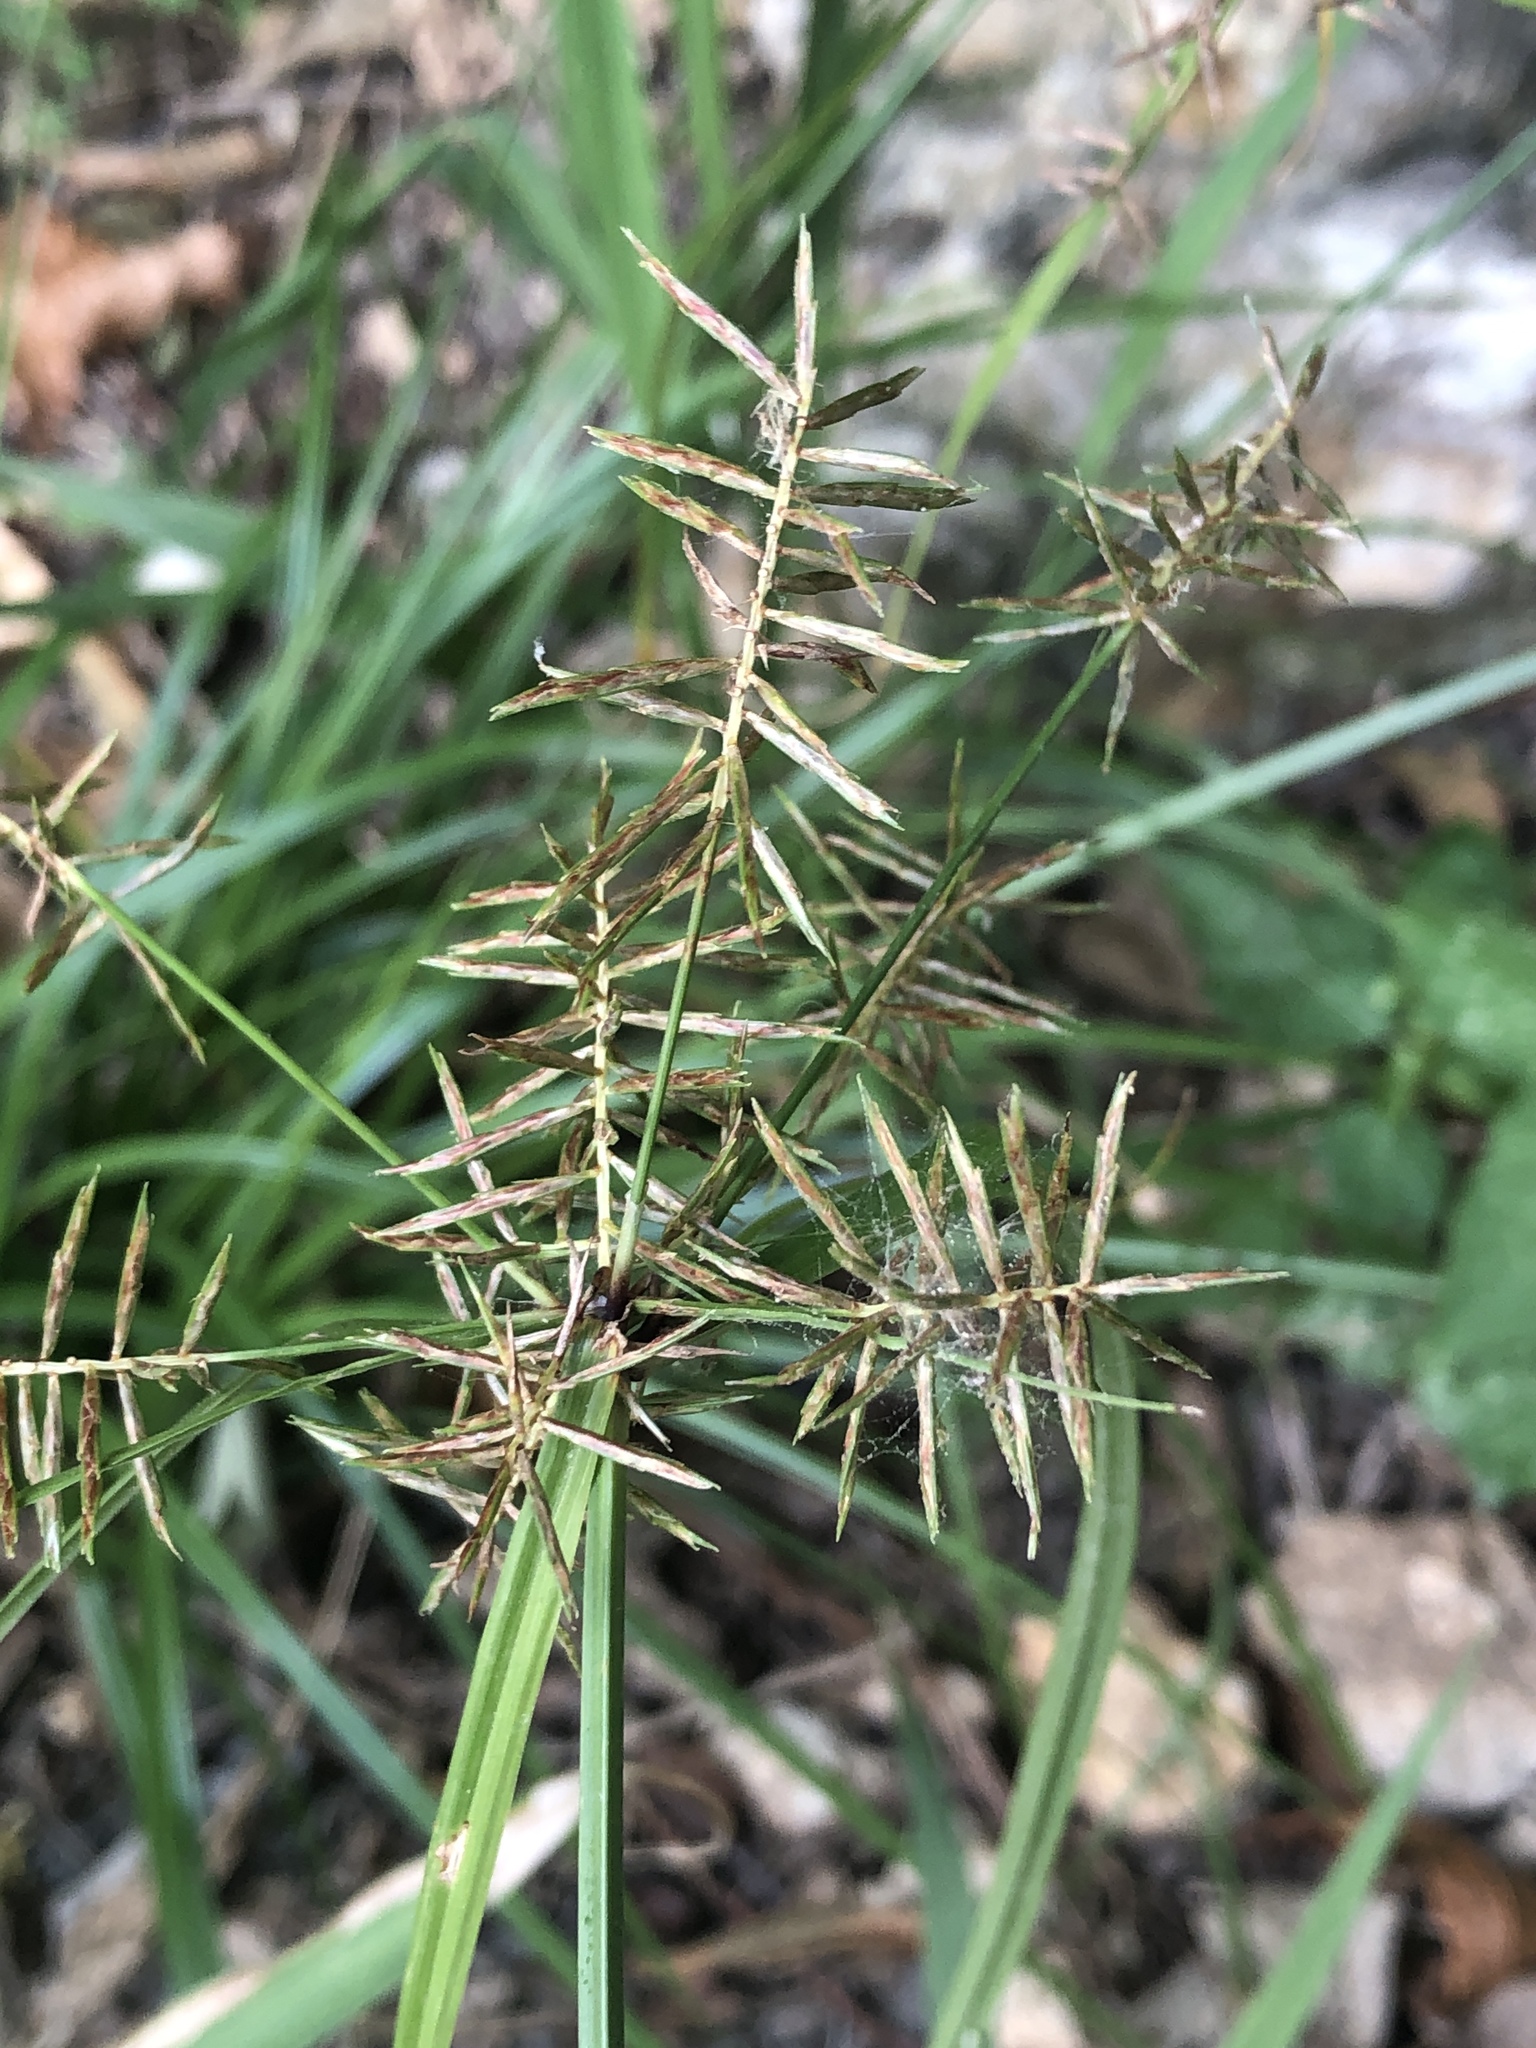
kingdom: Plantae
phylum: Tracheophyta
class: Liliopsida
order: Poales
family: Cyperaceae
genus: Cyperus
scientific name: Cyperus pseudothyrsiflorus
